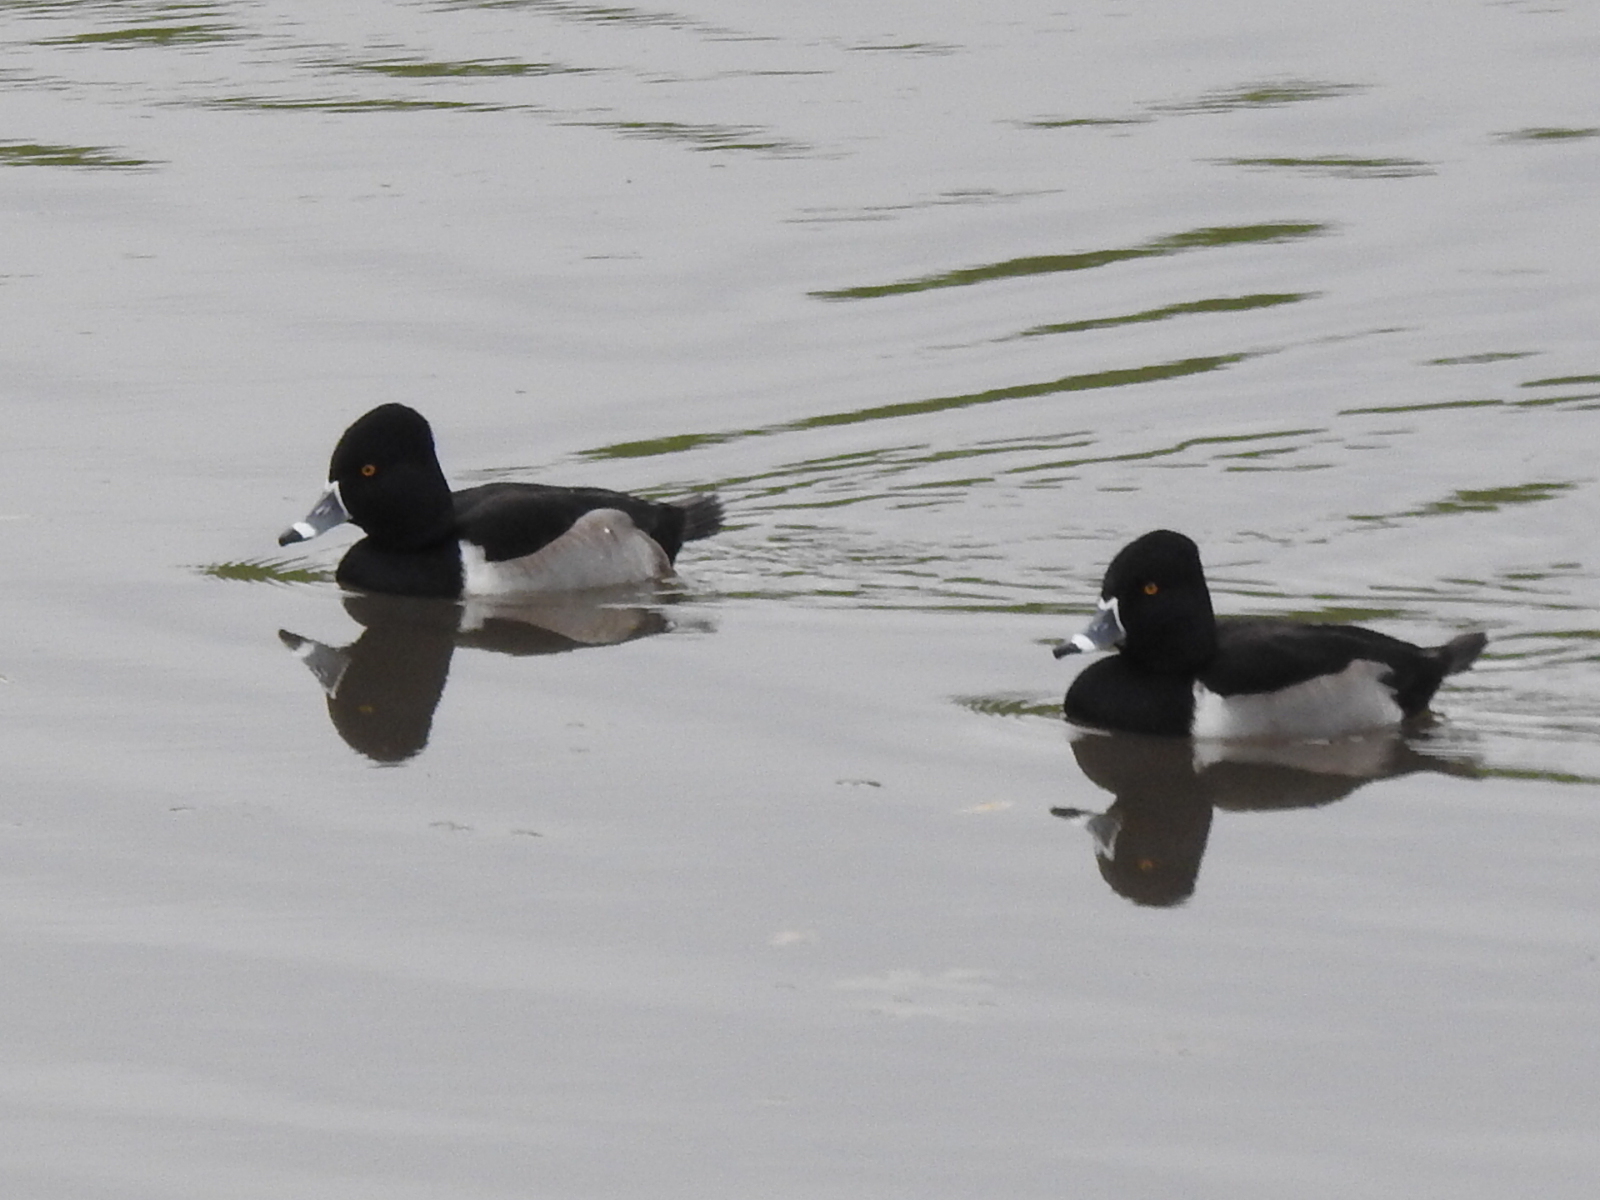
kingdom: Animalia
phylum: Chordata
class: Aves
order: Anseriformes
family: Anatidae
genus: Aythya
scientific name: Aythya collaris
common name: Ring-necked duck
